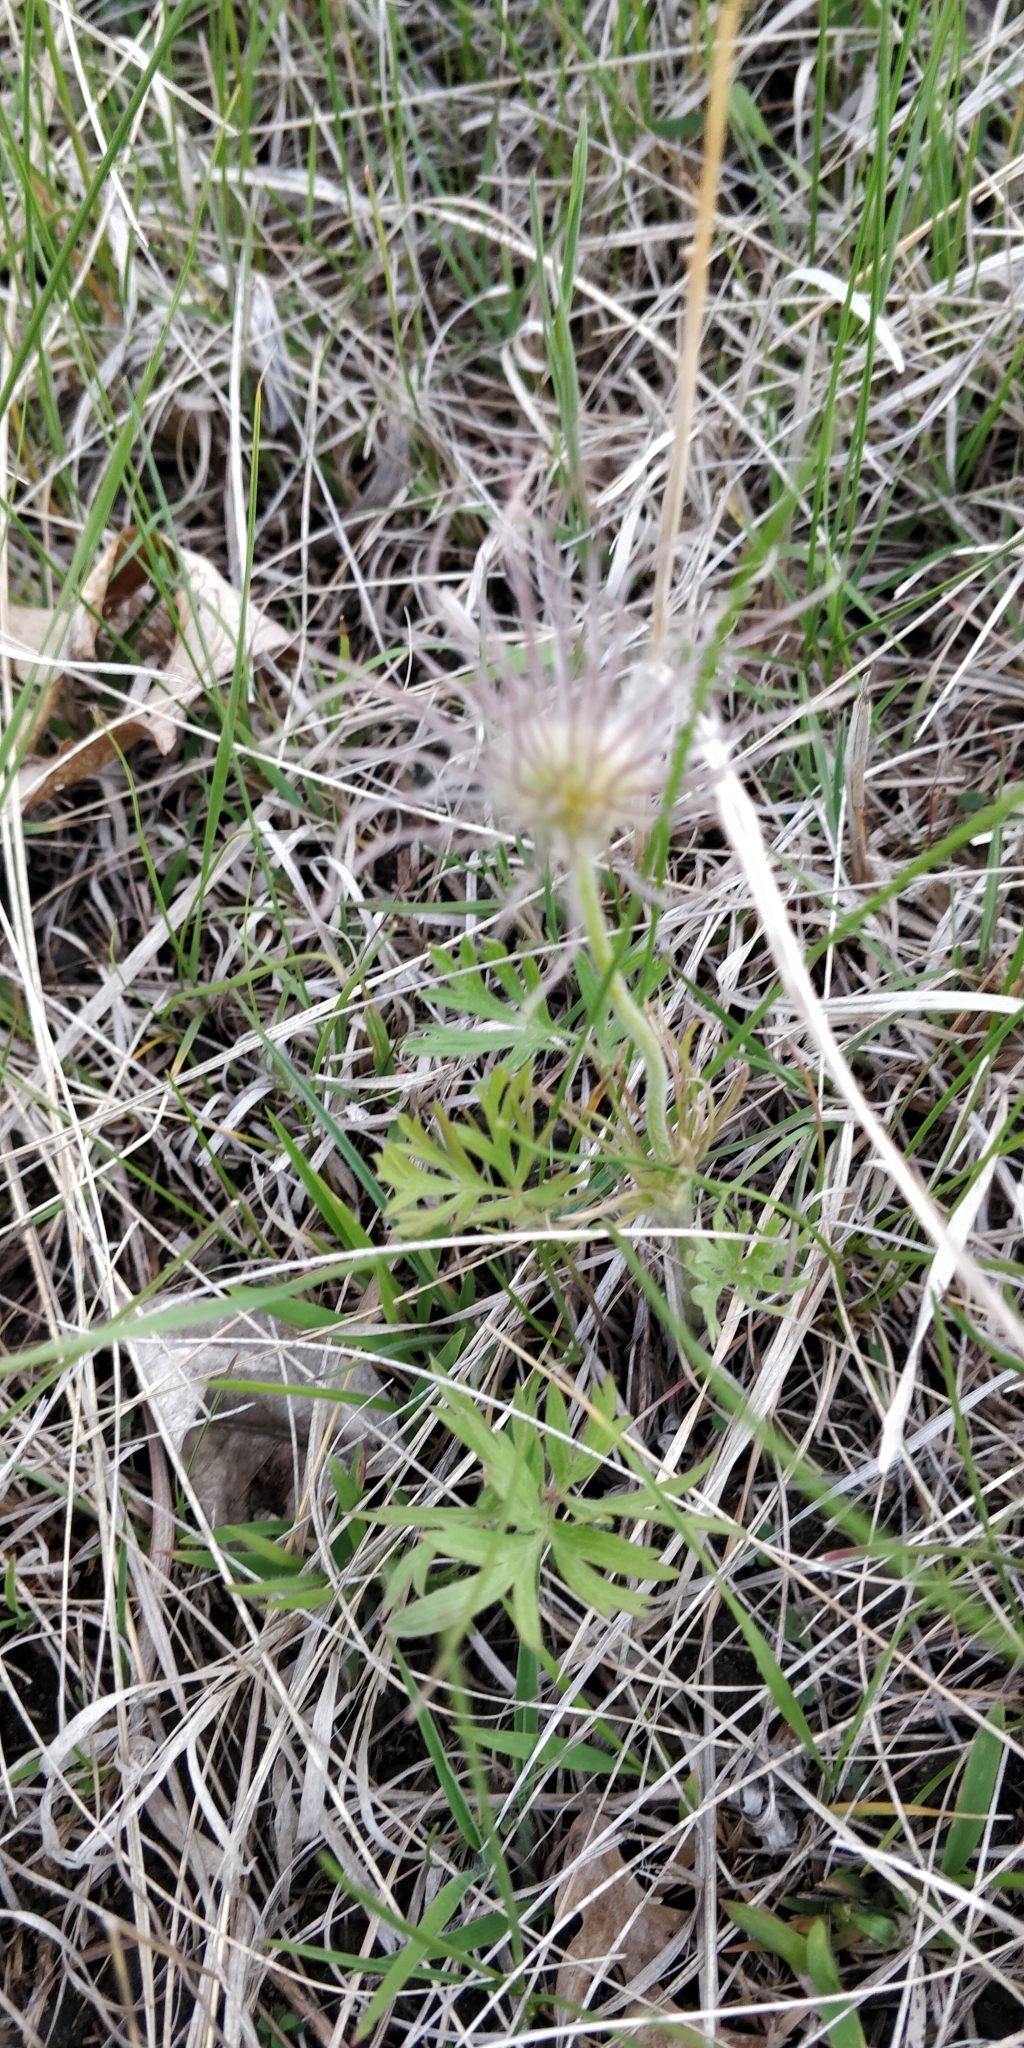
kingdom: Plantae
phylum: Tracheophyta
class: Magnoliopsida
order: Ranunculales
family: Ranunculaceae
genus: Pulsatilla
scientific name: Pulsatilla nuttalliana
